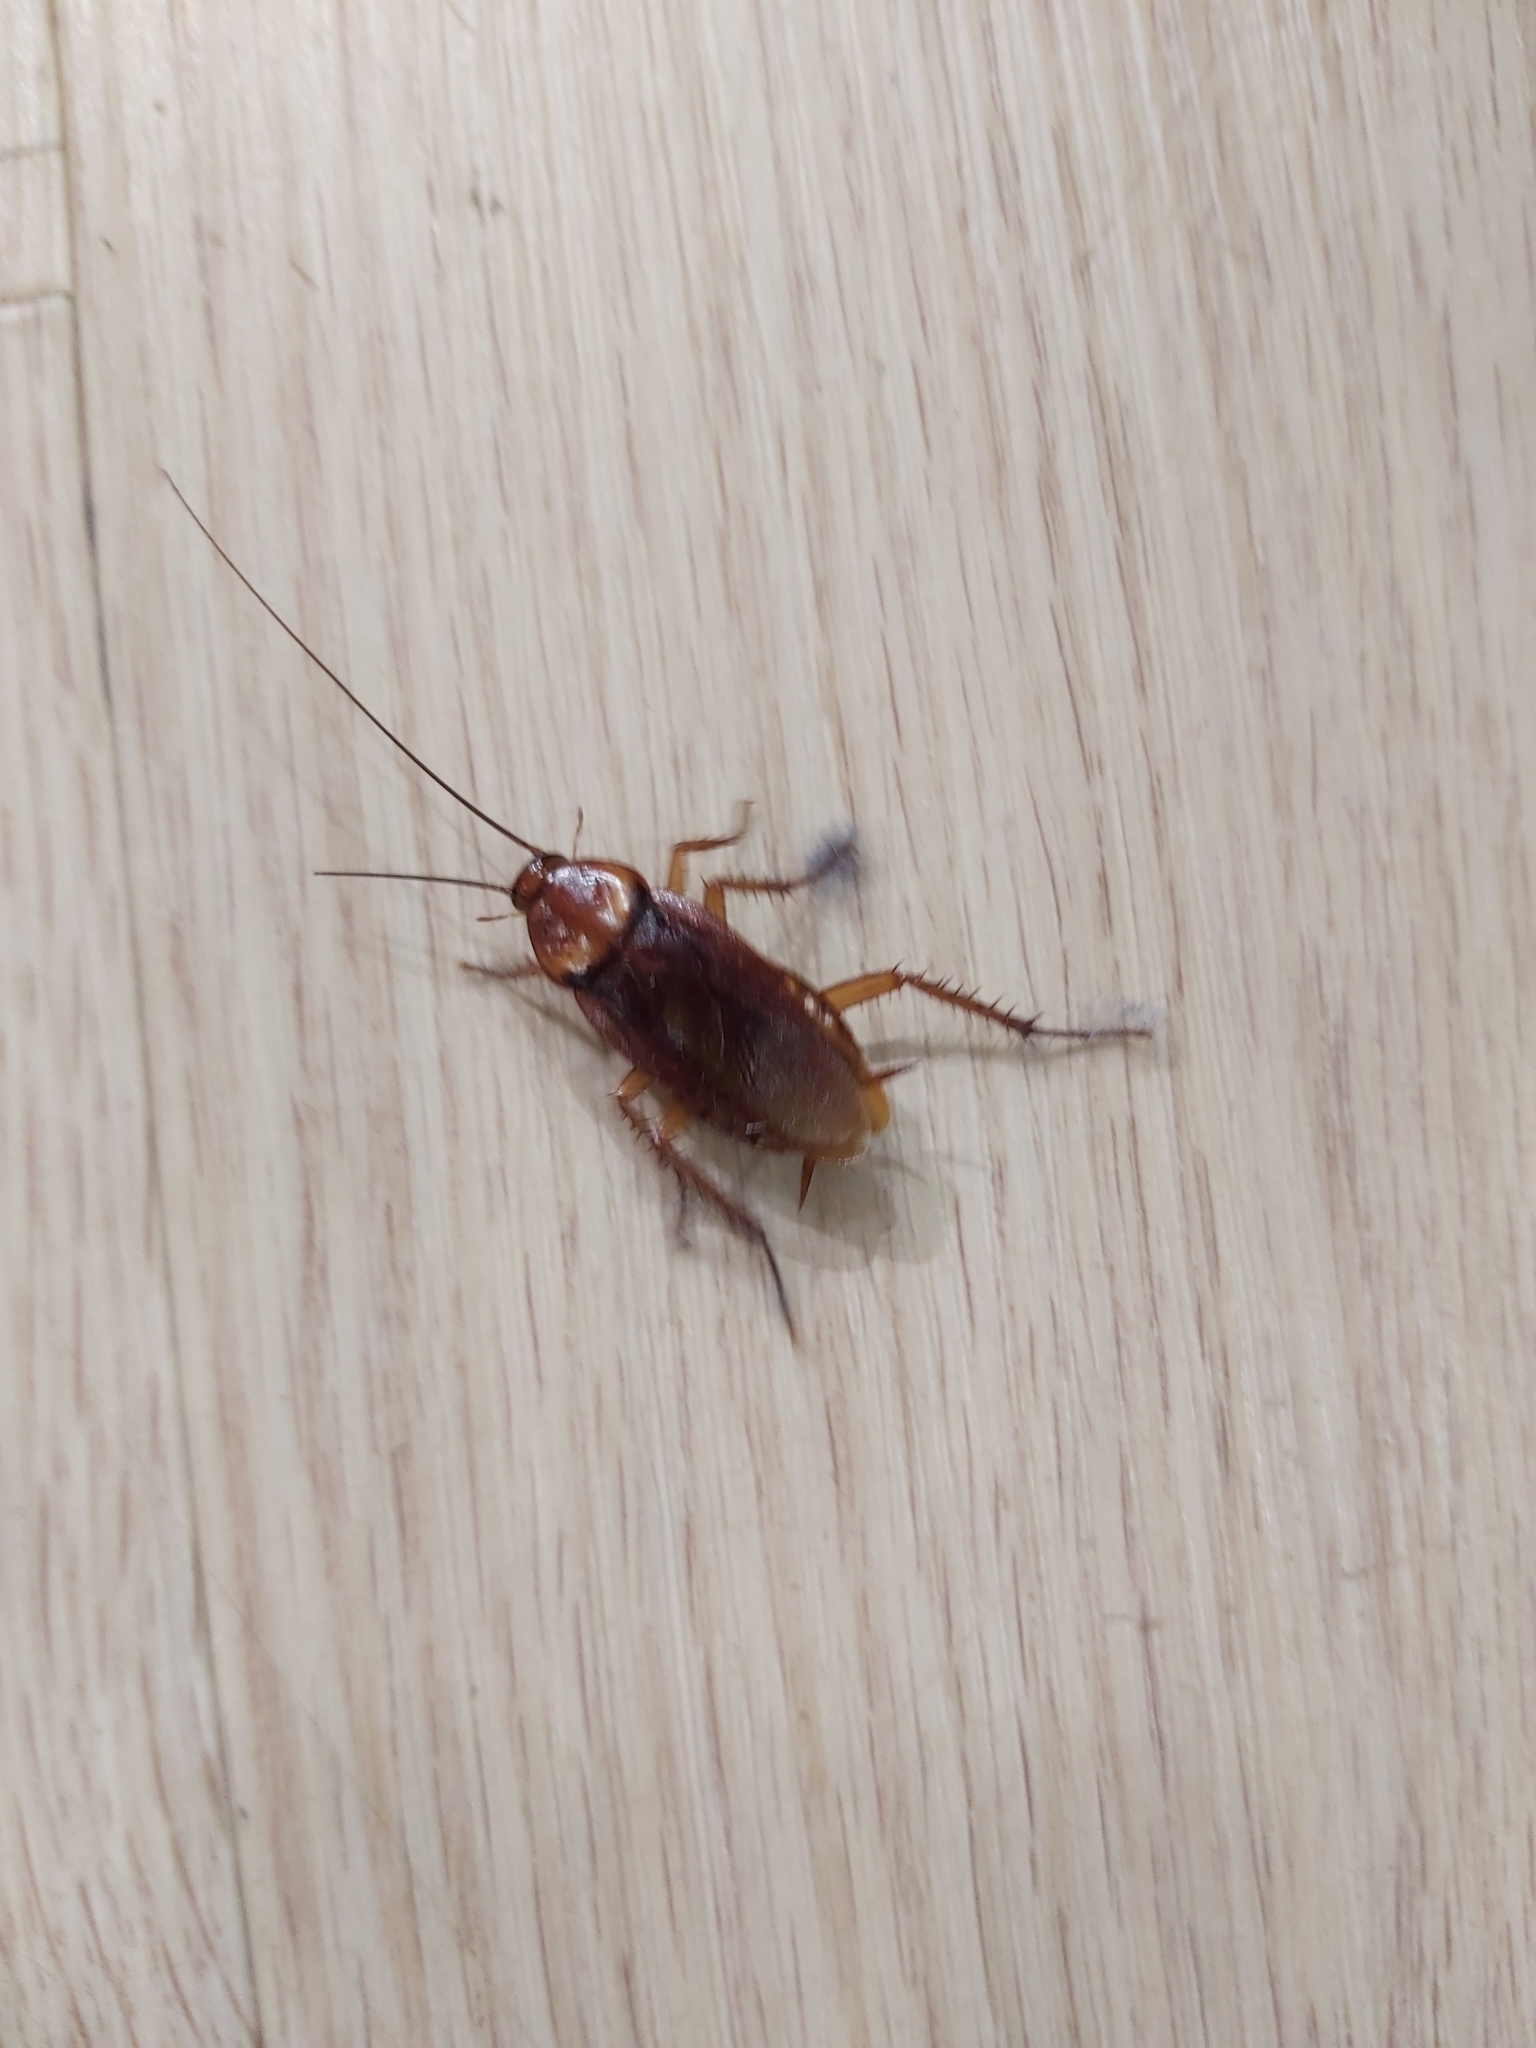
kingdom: Animalia
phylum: Arthropoda
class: Insecta
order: Blattodea
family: Blattidae
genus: Periplaneta
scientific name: Periplaneta americana
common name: American cockroach
